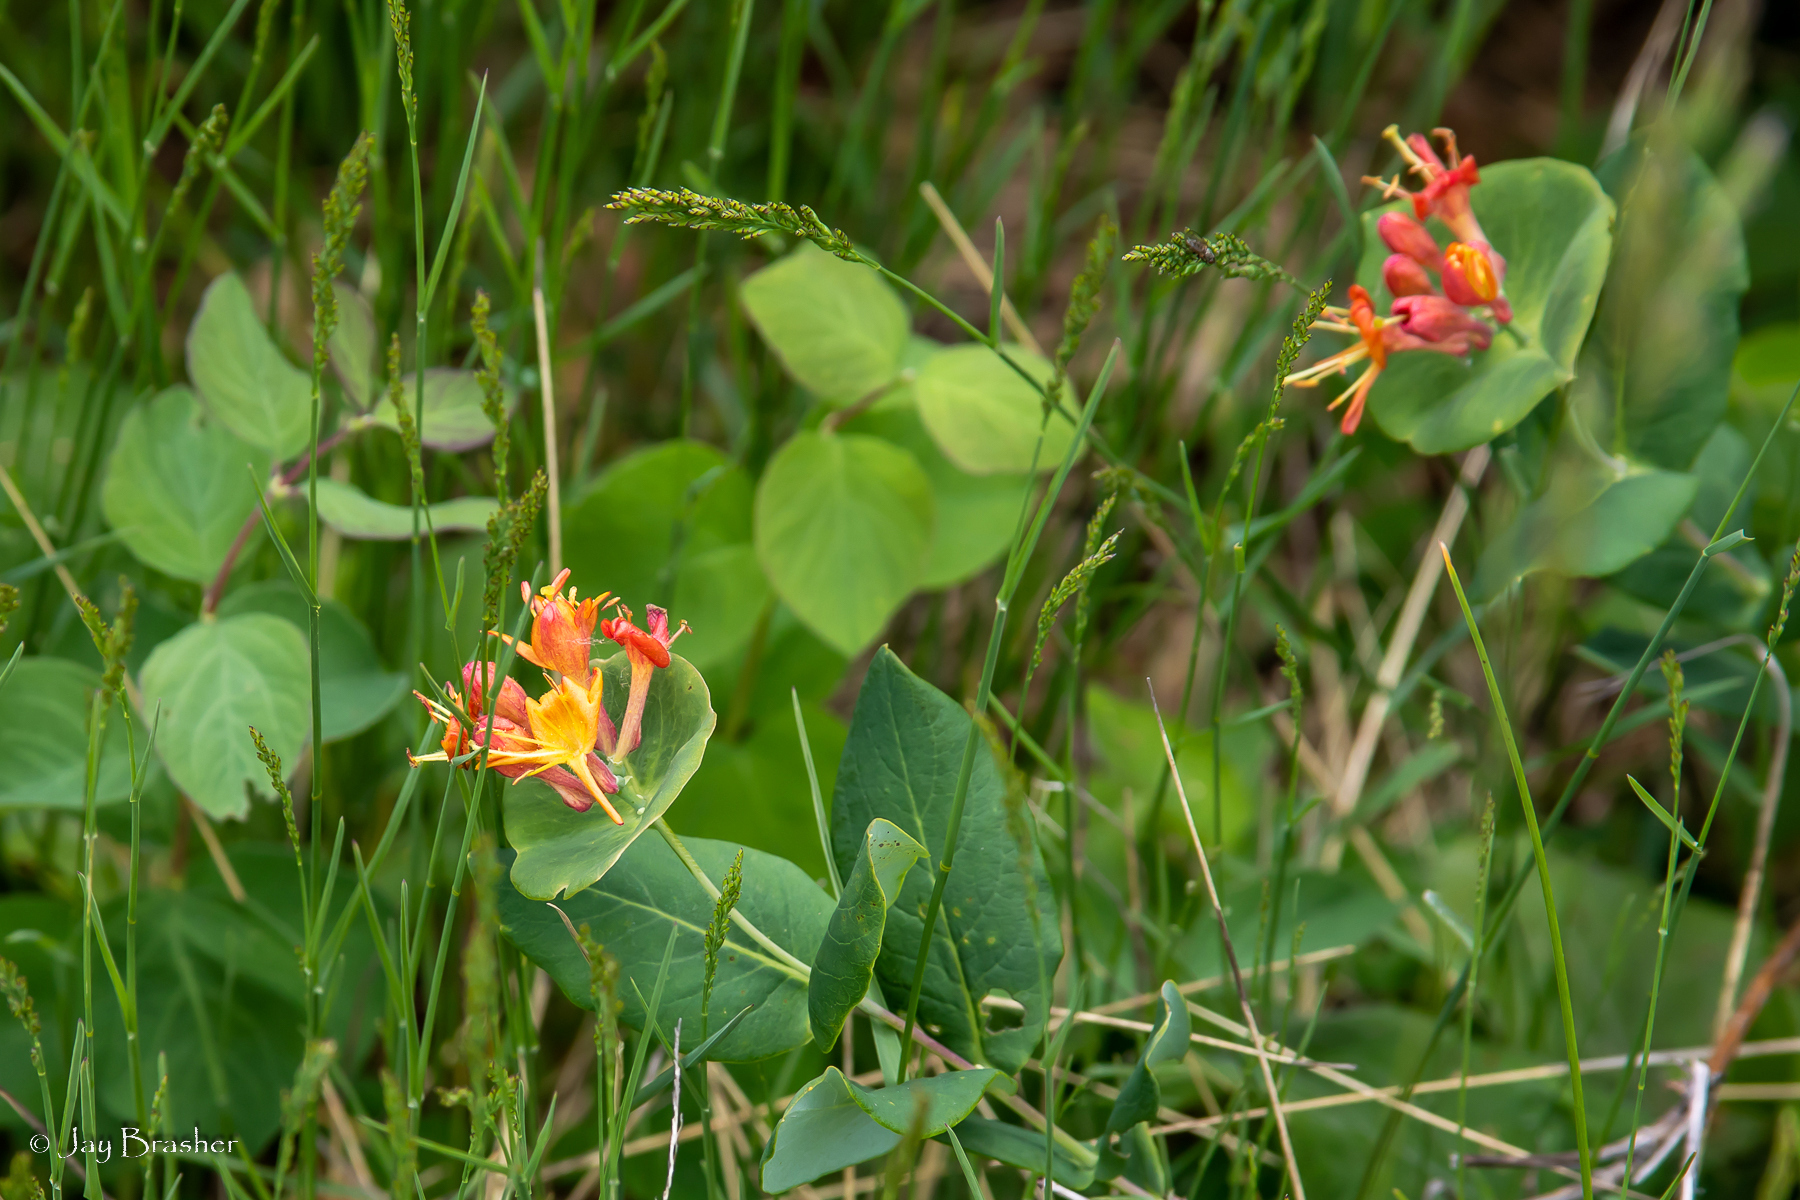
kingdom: Plantae
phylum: Tracheophyta
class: Magnoliopsida
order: Dipsacales
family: Caprifoliaceae
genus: Lonicera
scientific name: Lonicera dioica
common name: Limber honeysuckle
